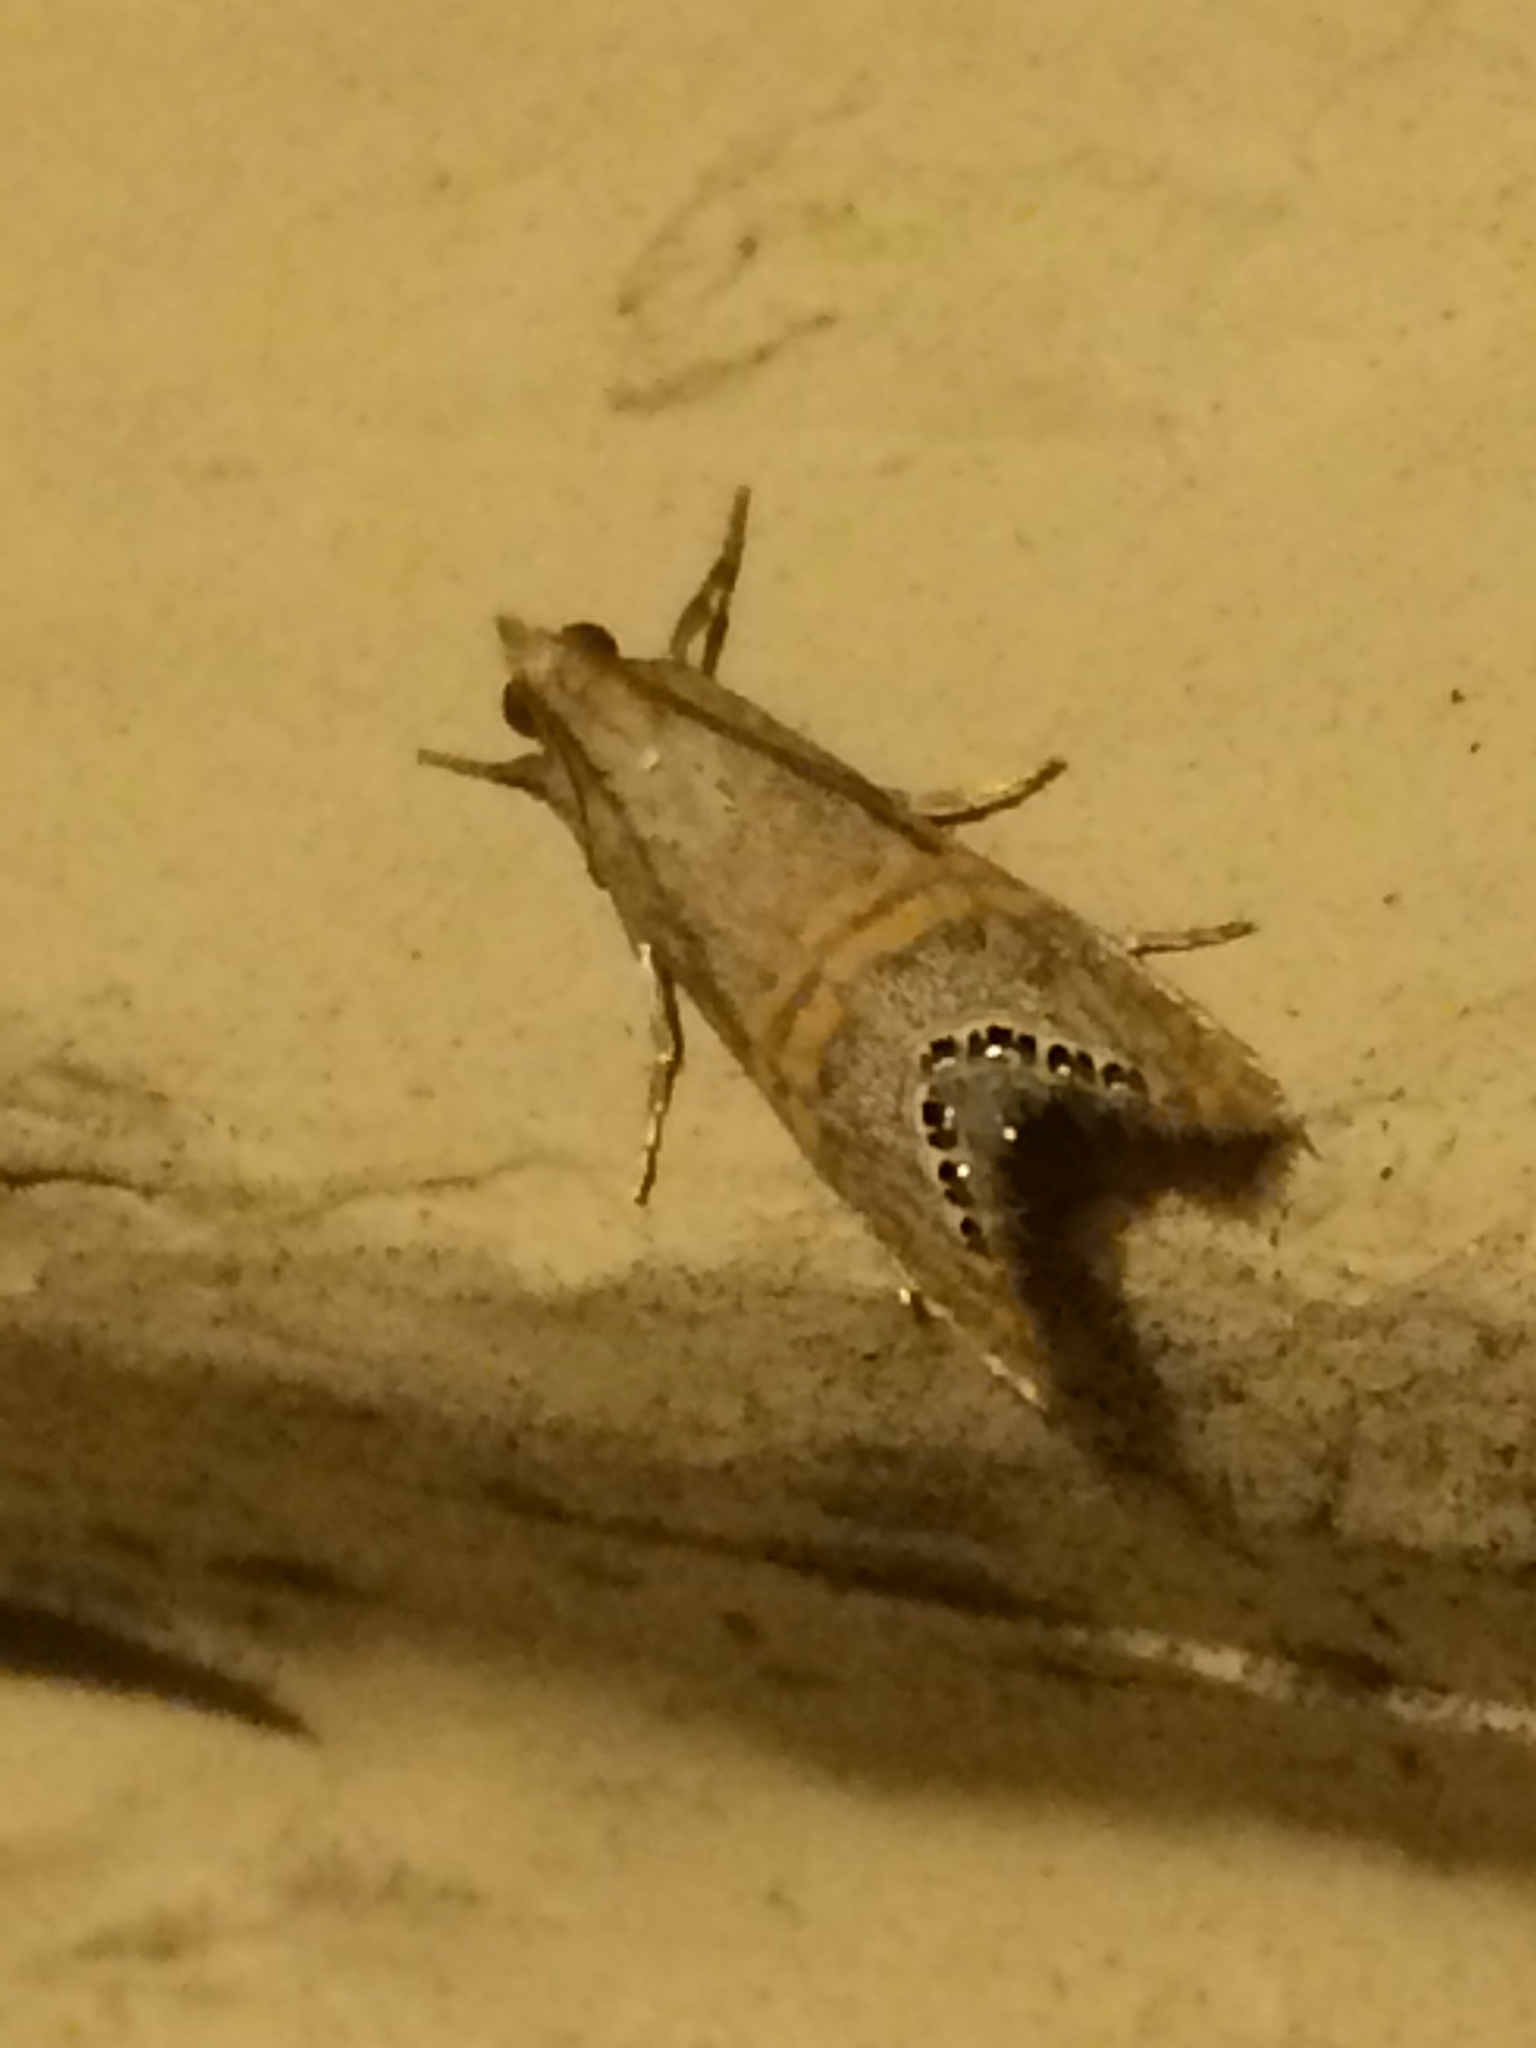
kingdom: Animalia
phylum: Arthropoda
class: Insecta
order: Lepidoptera
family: Crambidae
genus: Euchromius
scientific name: Euchromius ocellea
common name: Necklace veneer moth
